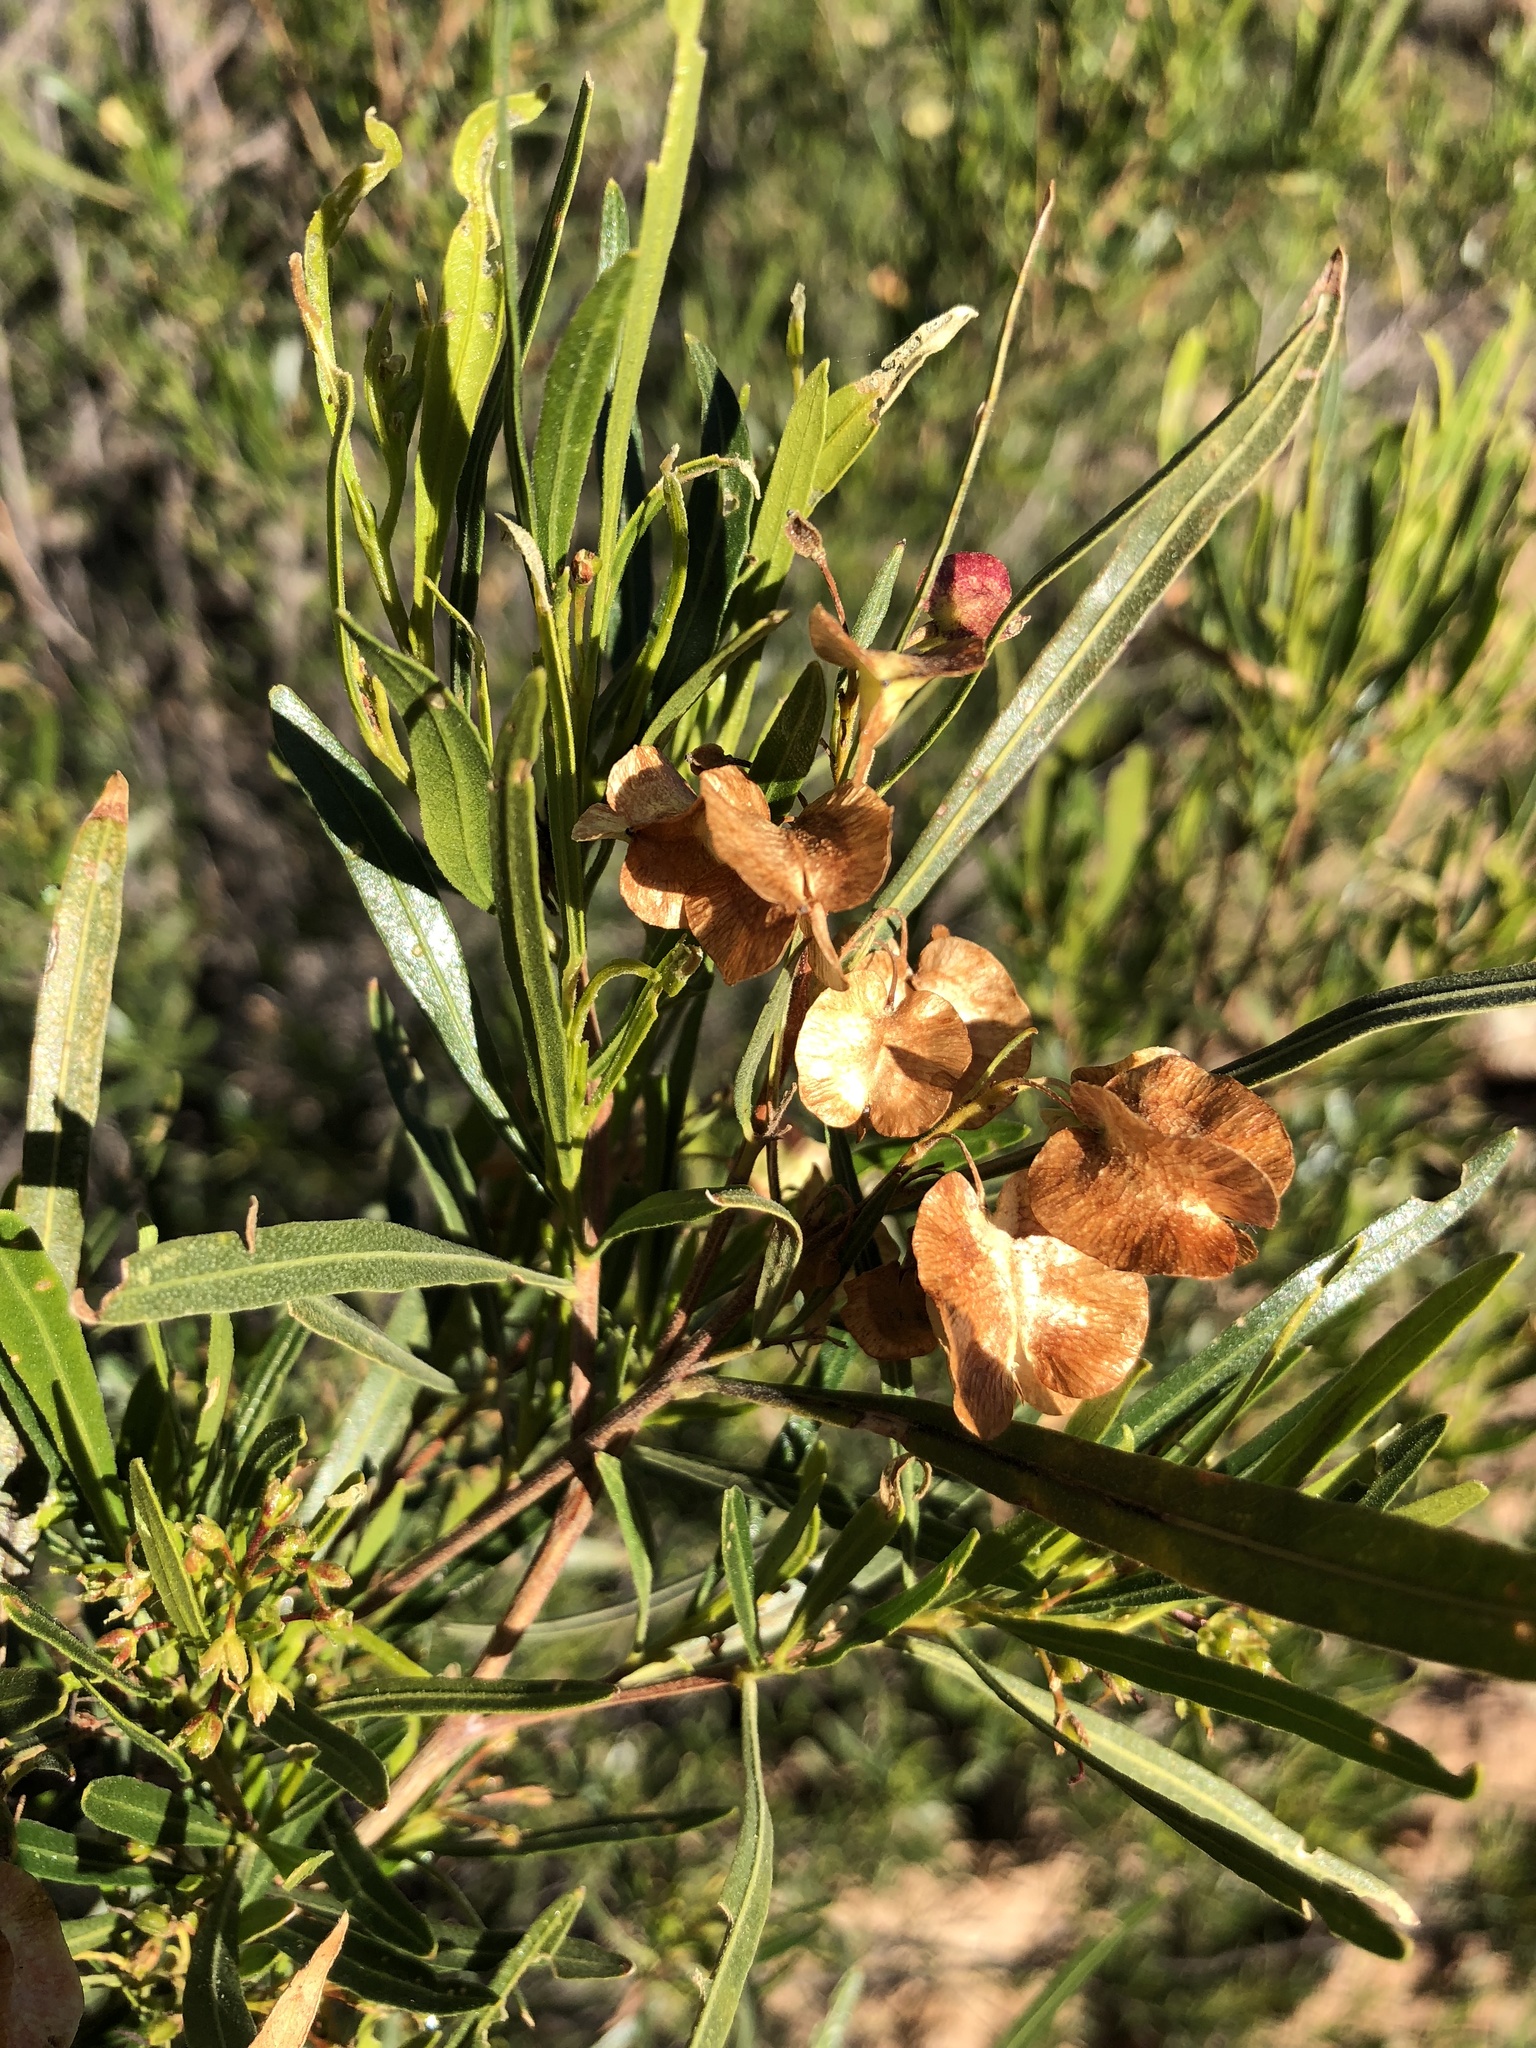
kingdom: Plantae
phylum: Tracheophyta
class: Magnoliopsida
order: Sapindales
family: Sapindaceae
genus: Dodonaea
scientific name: Dodonaea viscosa
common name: Hopbush
